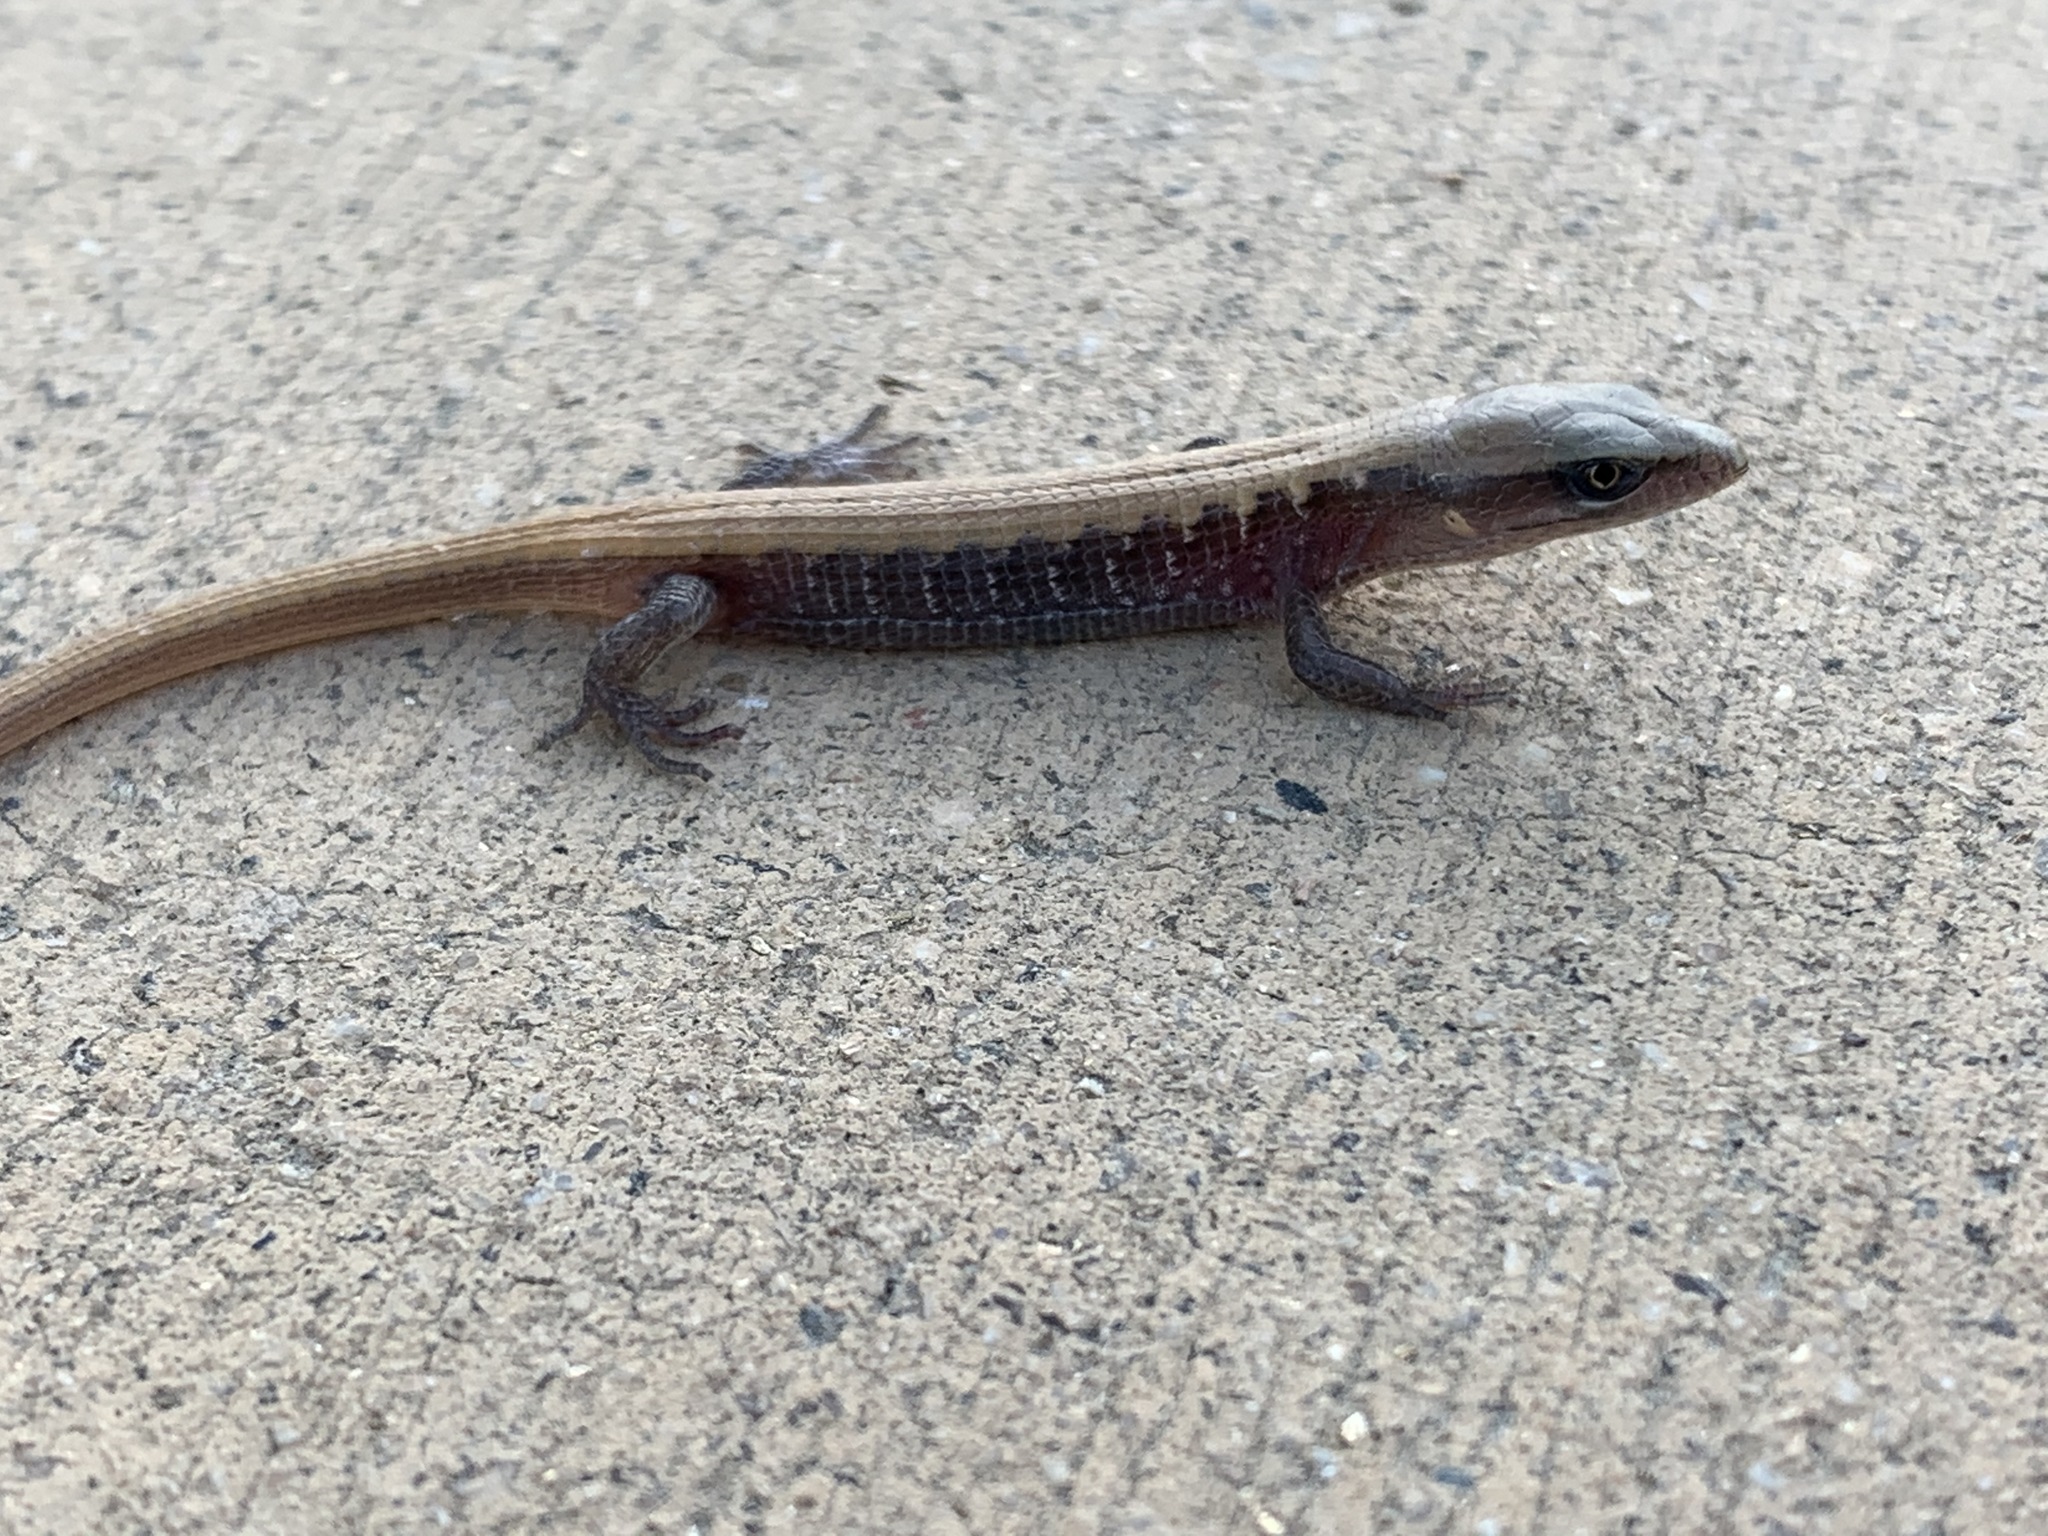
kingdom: Animalia
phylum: Chordata
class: Squamata
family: Anguidae
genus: Elgaria
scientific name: Elgaria multicarinata
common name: Southern alligator lizard
